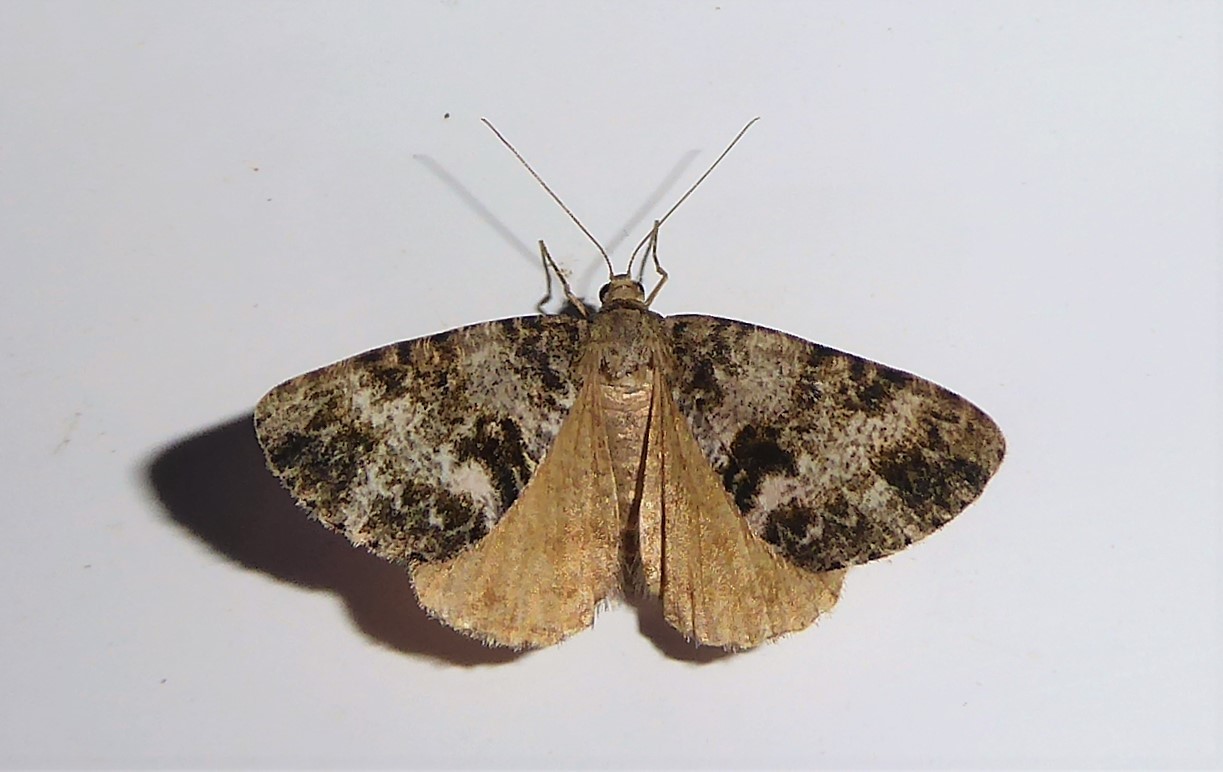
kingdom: Animalia
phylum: Arthropoda
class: Insecta
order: Lepidoptera
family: Geometridae
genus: Pseudocoremia
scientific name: Pseudocoremia lactiflua
